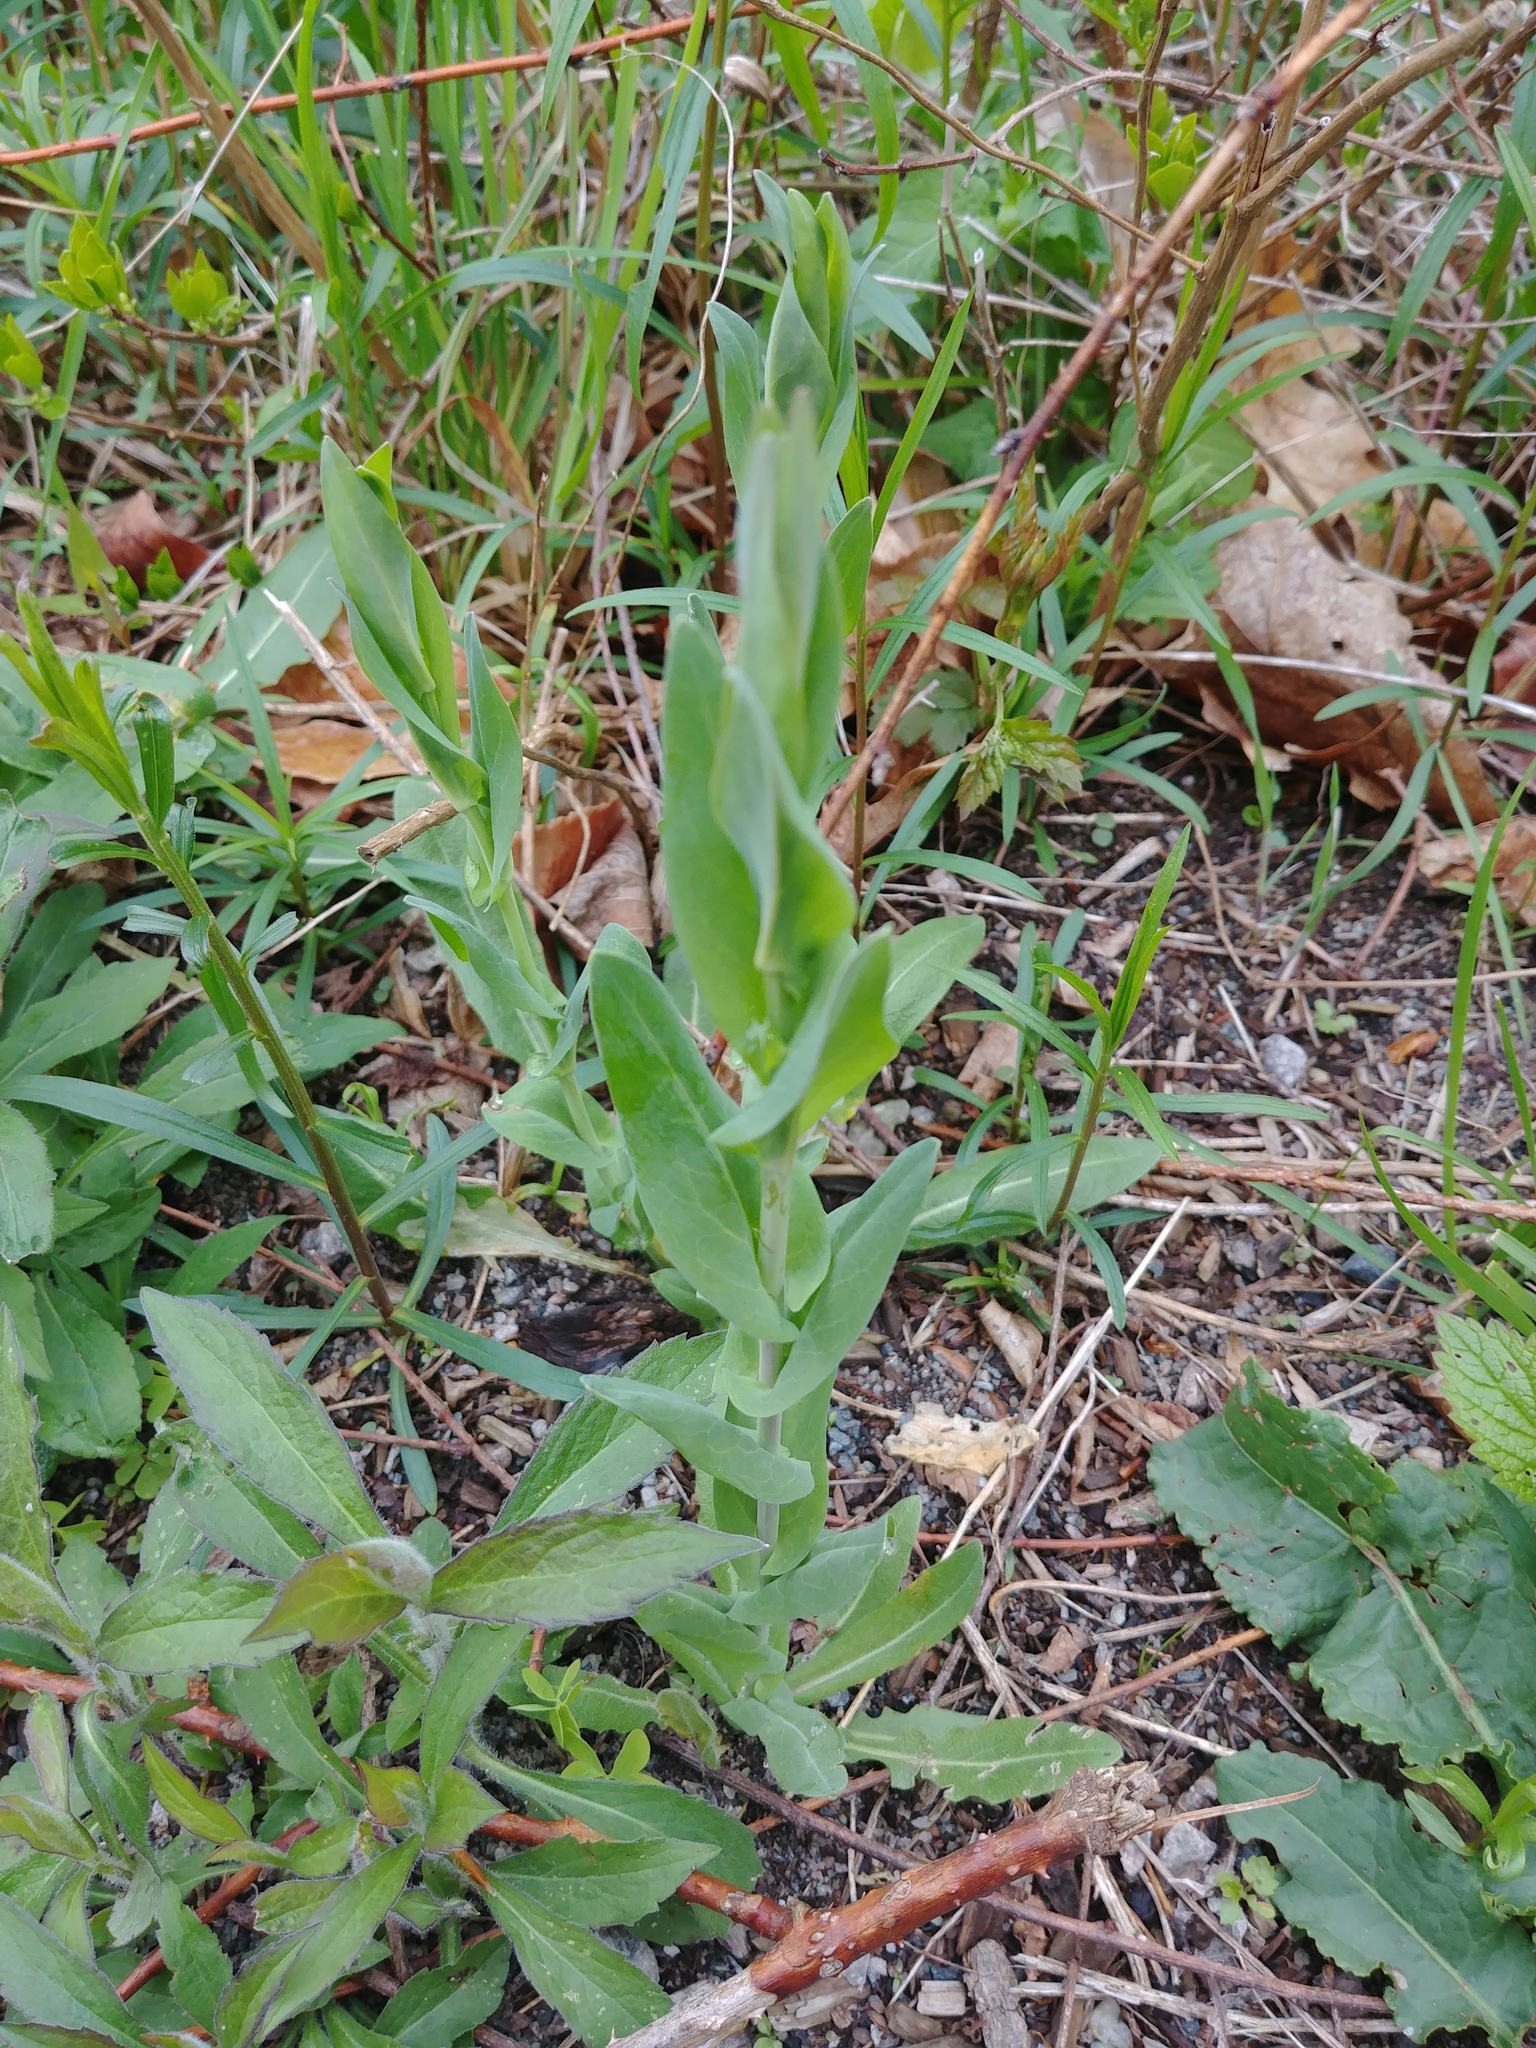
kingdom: Plantae
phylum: Tracheophyta
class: Magnoliopsida
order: Brassicales
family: Brassicaceae
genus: Turritis
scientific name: Turritis glabra
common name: Tower rockcress
